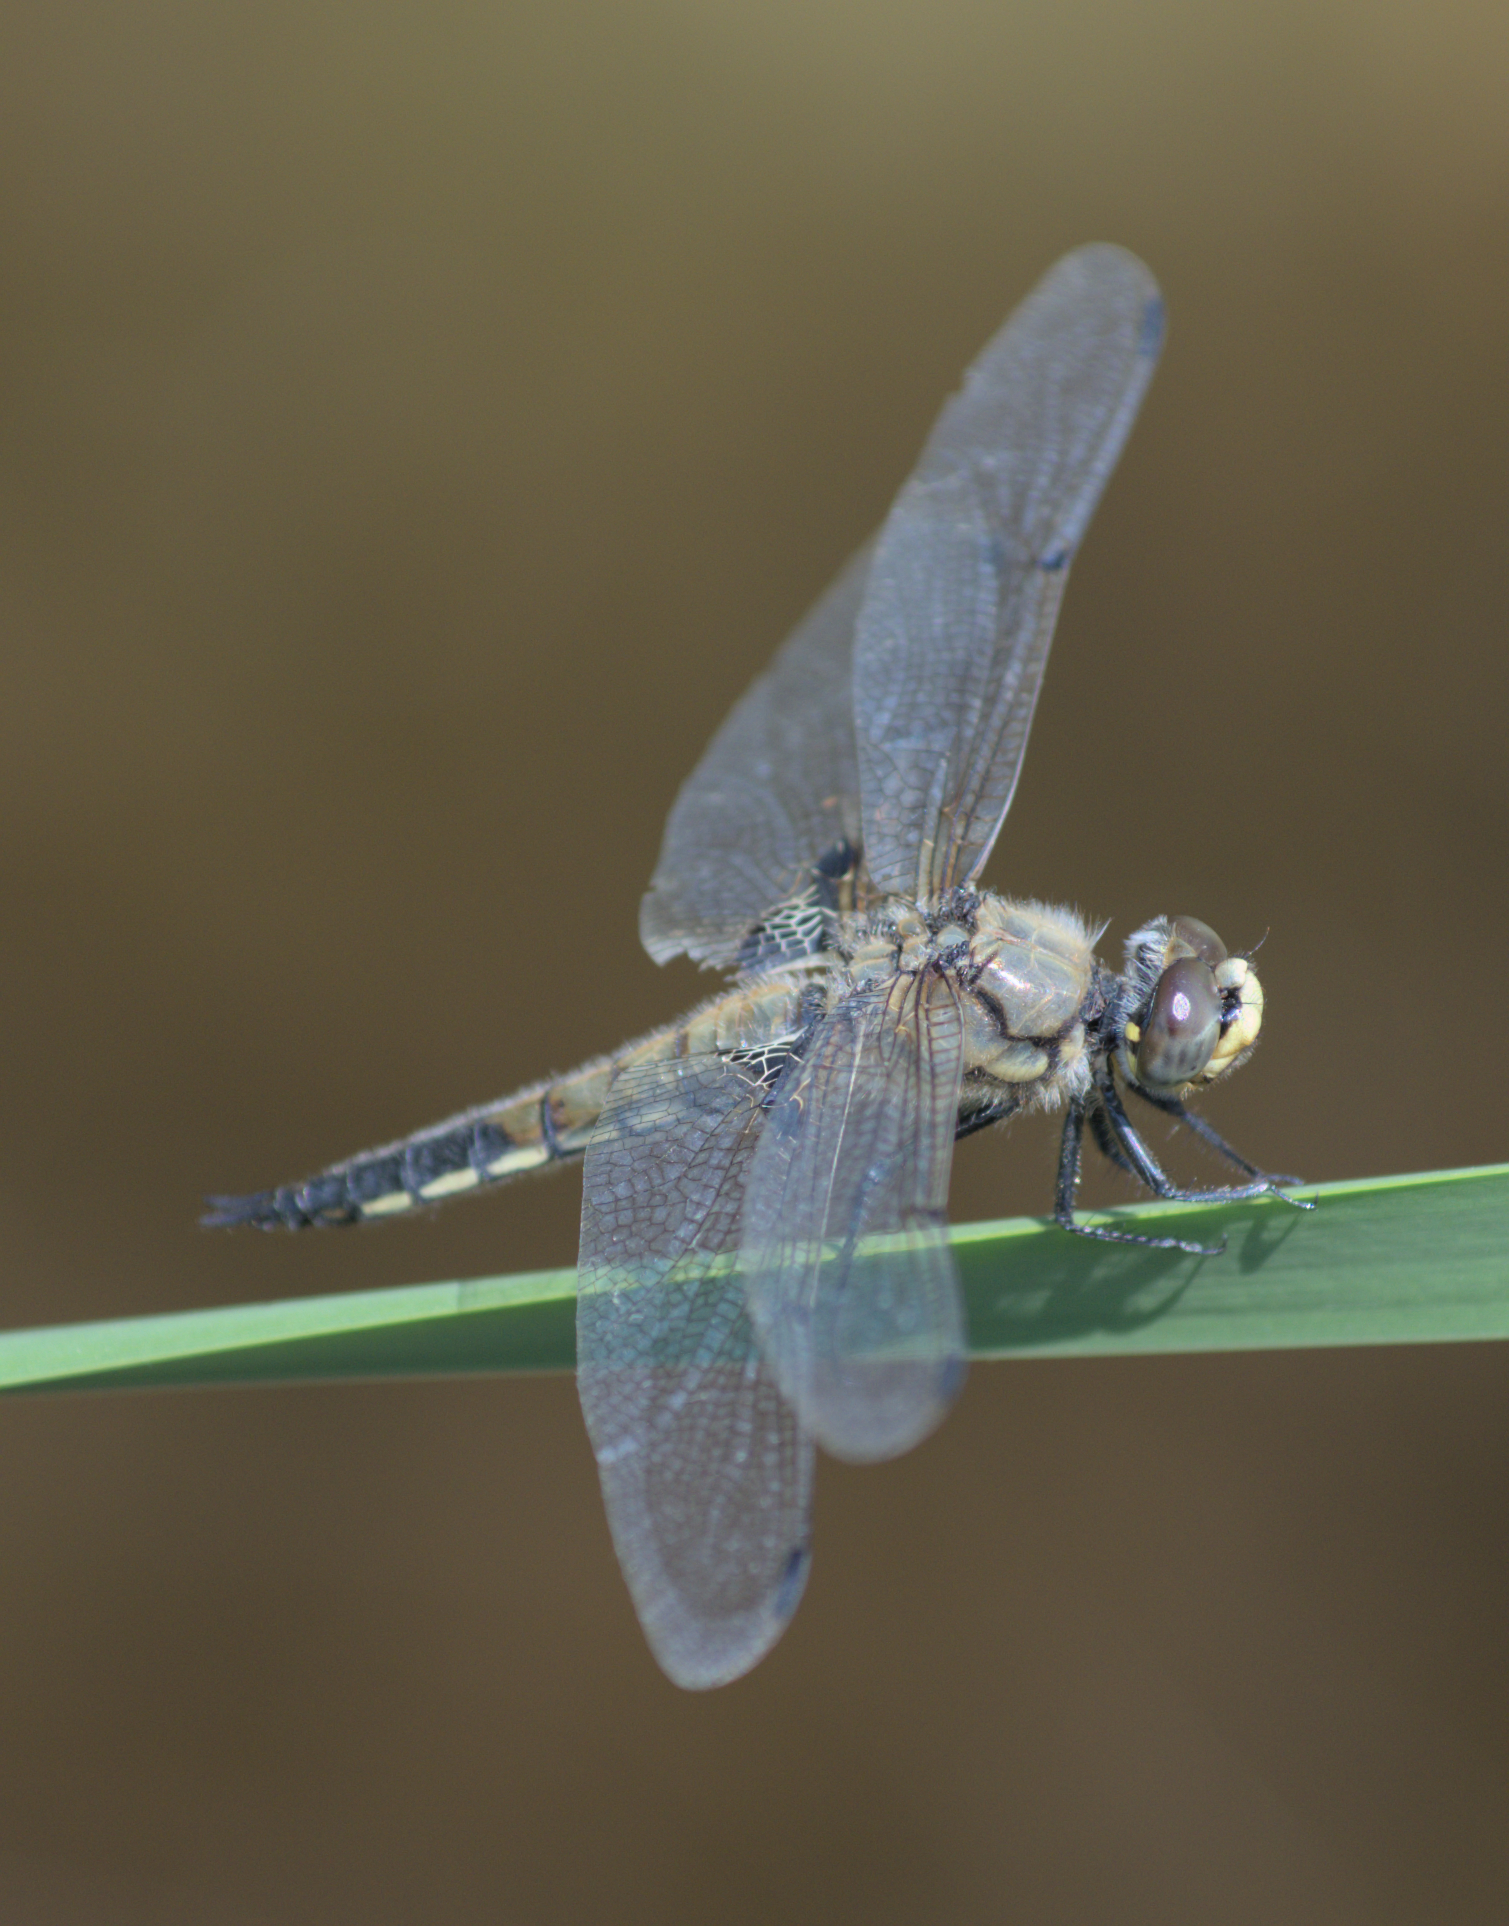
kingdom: Animalia
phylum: Arthropoda
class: Insecta
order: Odonata
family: Libellulidae
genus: Libellula
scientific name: Libellula quadrimaculata
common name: Four-spotted chaser
